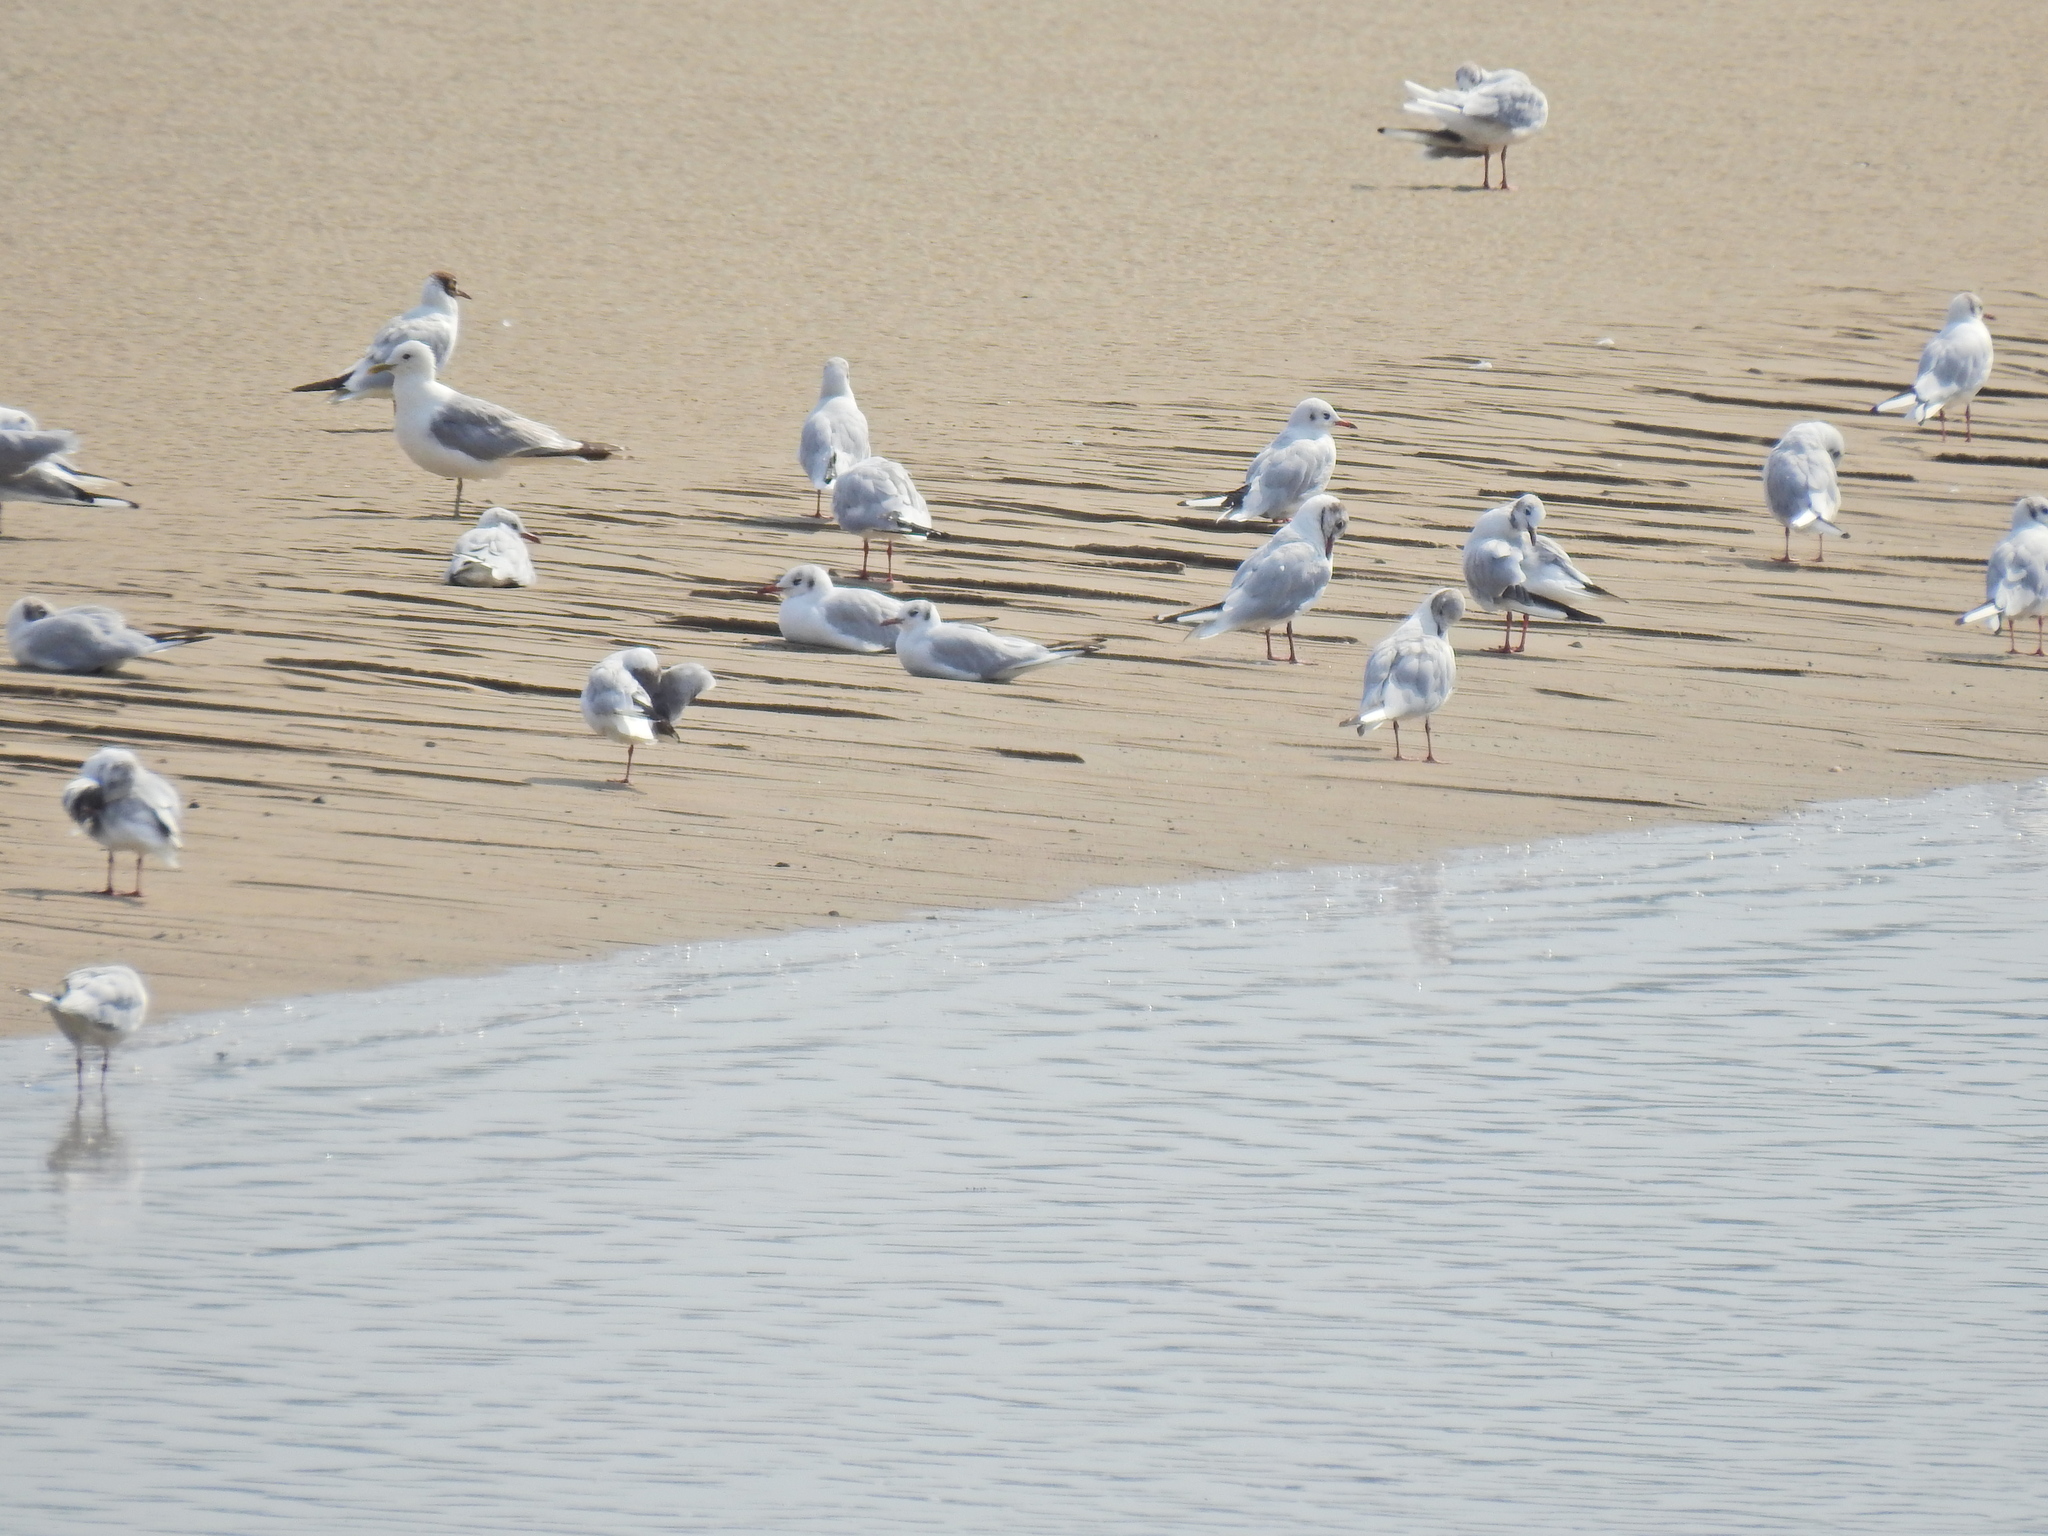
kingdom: Animalia
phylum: Chordata
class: Aves
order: Charadriiformes
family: Laridae
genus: Chroicocephalus
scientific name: Chroicocephalus ridibundus
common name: Black-headed gull
